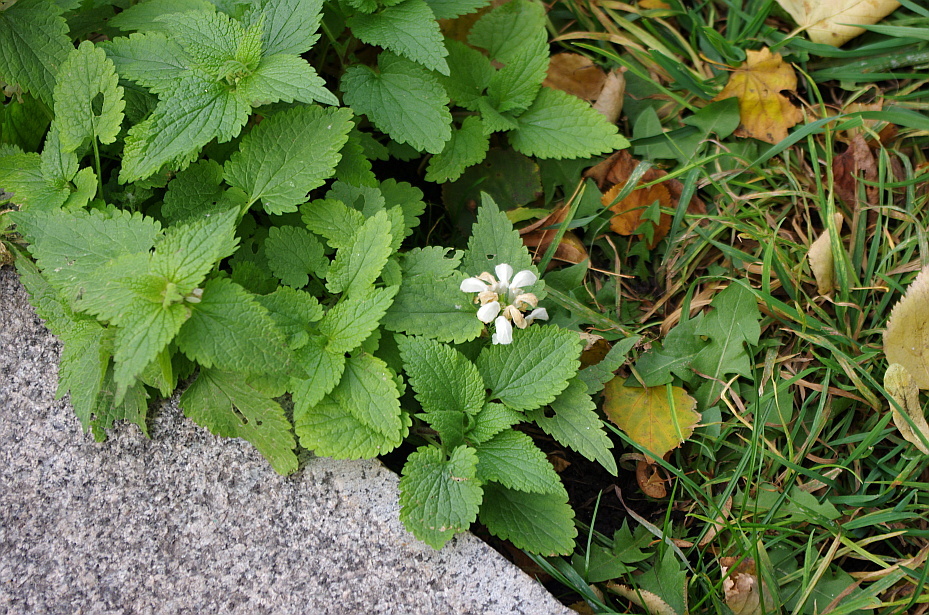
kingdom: Plantae
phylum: Tracheophyta
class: Magnoliopsida
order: Lamiales
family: Lamiaceae
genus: Lamium
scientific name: Lamium album
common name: White dead-nettle
